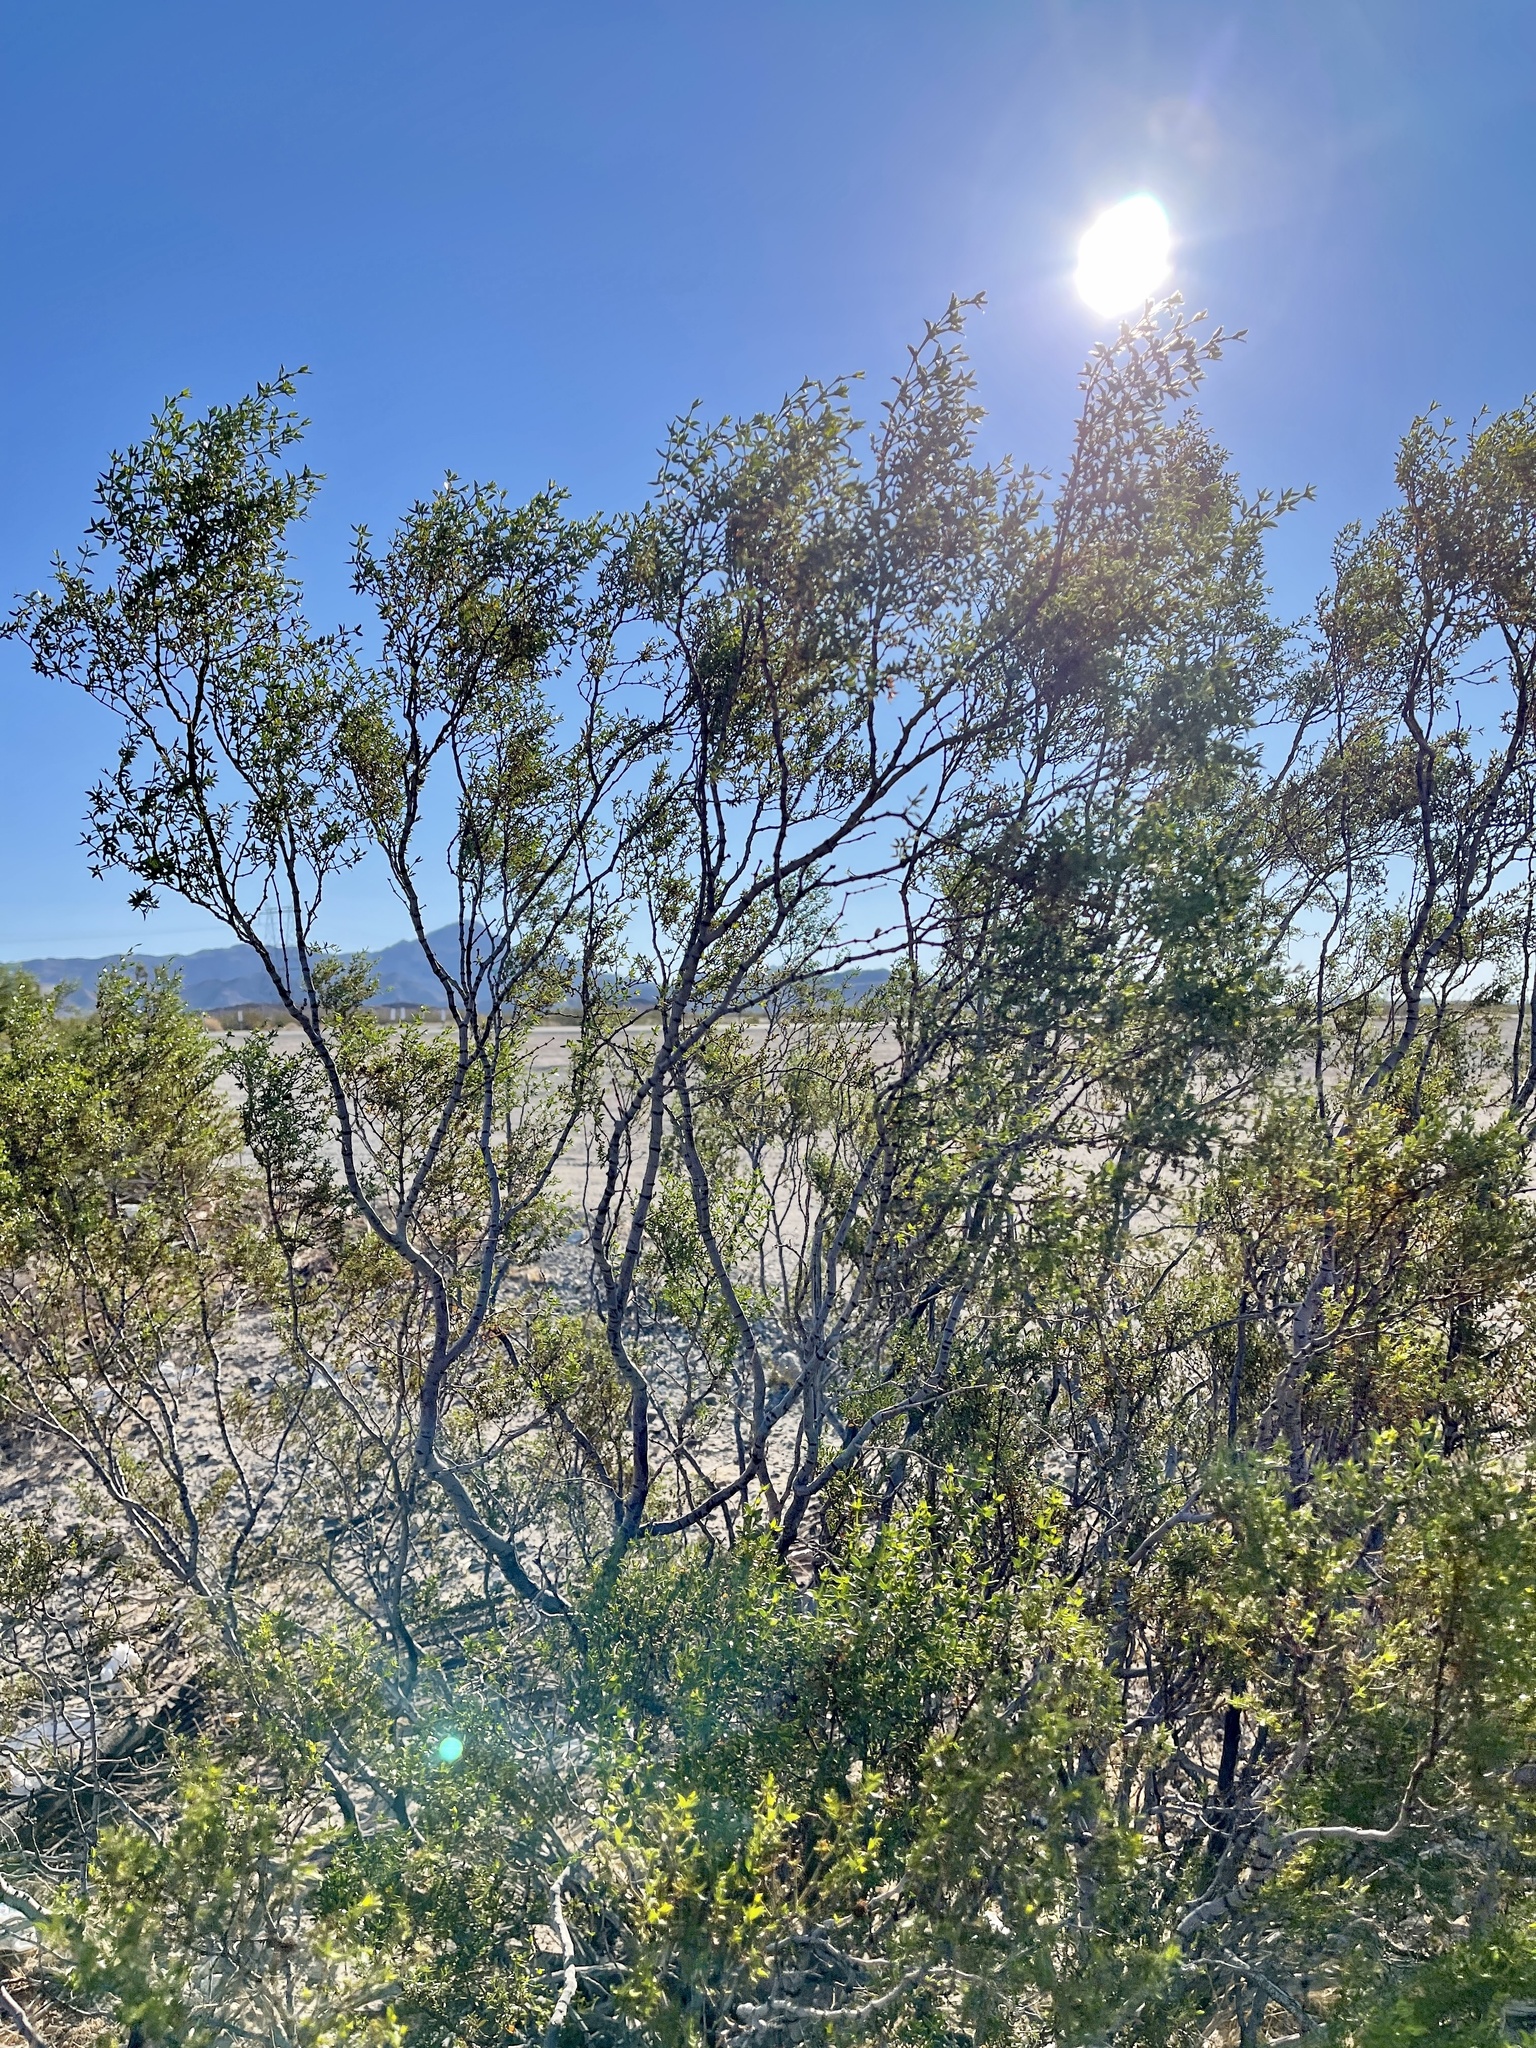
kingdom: Plantae
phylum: Tracheophyta
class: Magnoliopsida
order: Zygophyllales
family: Zygophyllaceae
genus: Larrea
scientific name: Larrea tridentata
